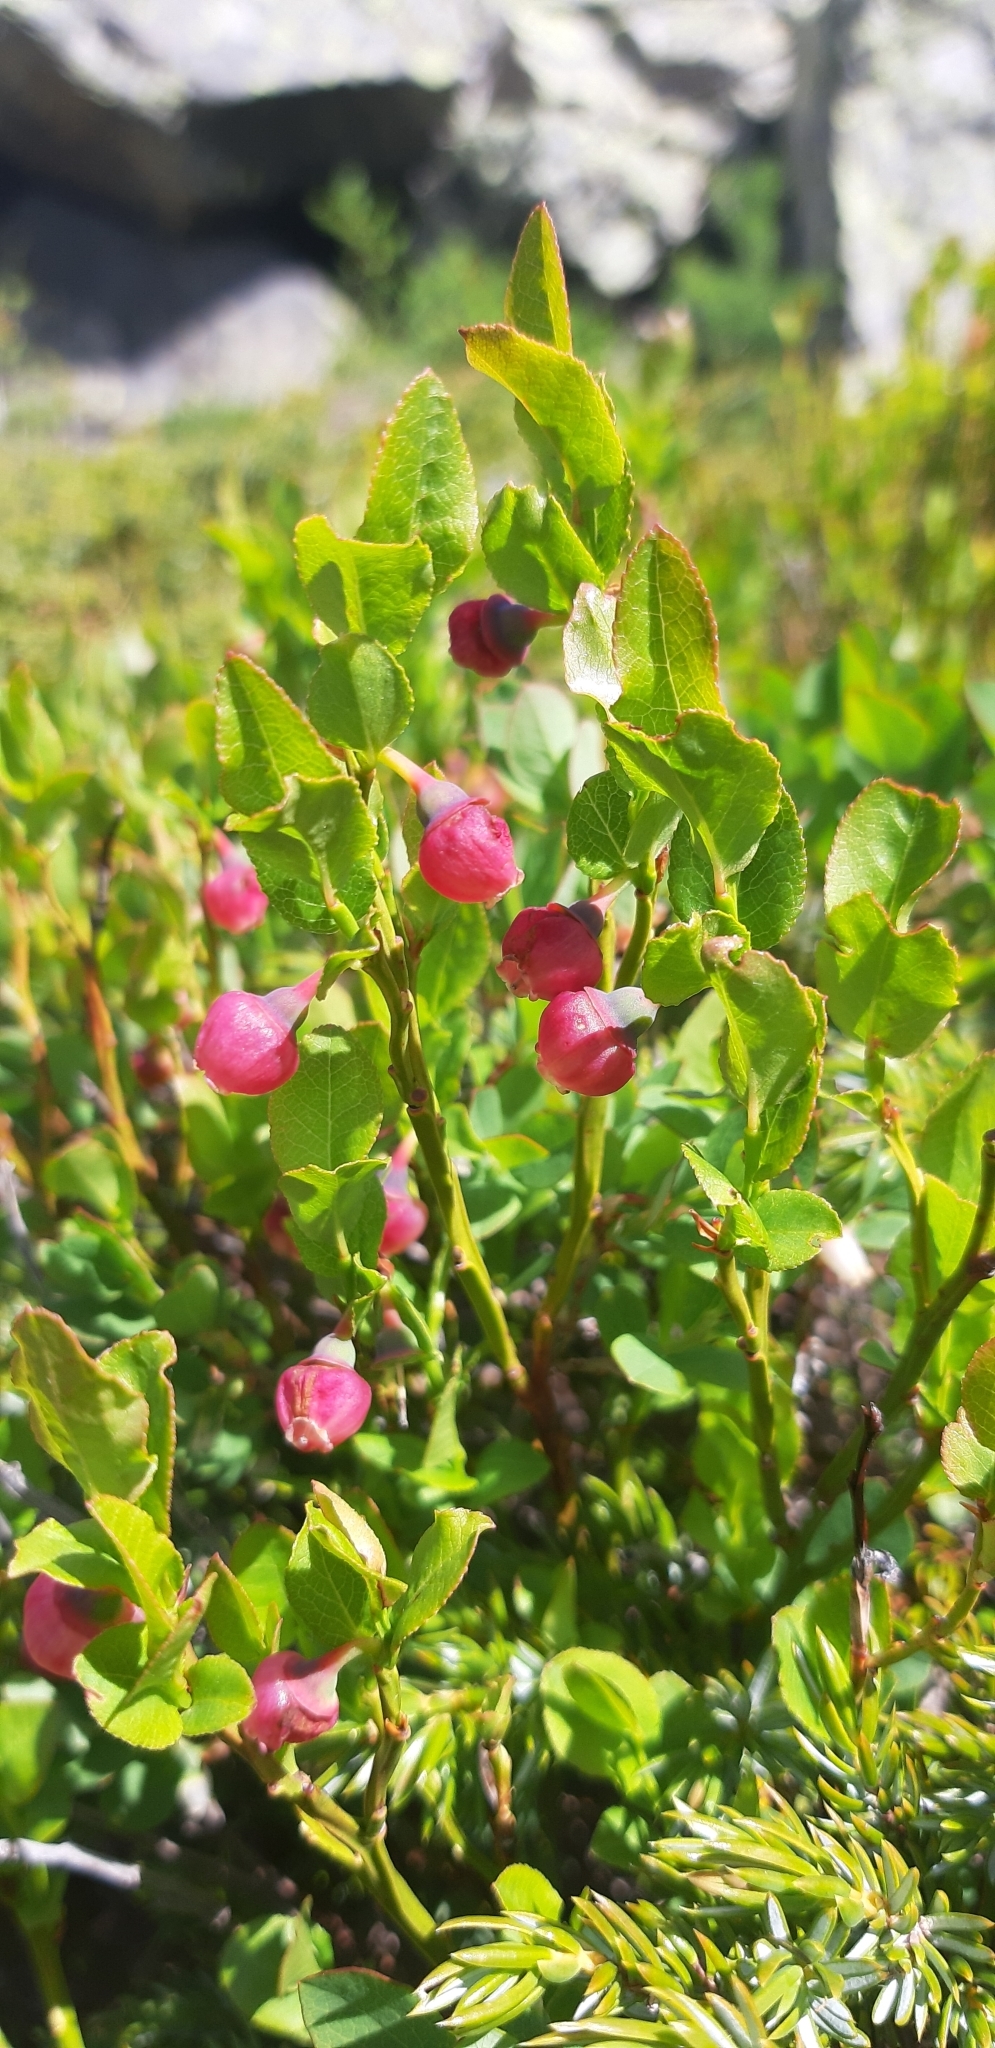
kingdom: Plantae
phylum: Tracheophyta
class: Magnoliopsida
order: Ericales
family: Ericaceae
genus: Vaccinium
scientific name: Vaccinium myrtillus
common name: Bilberry
